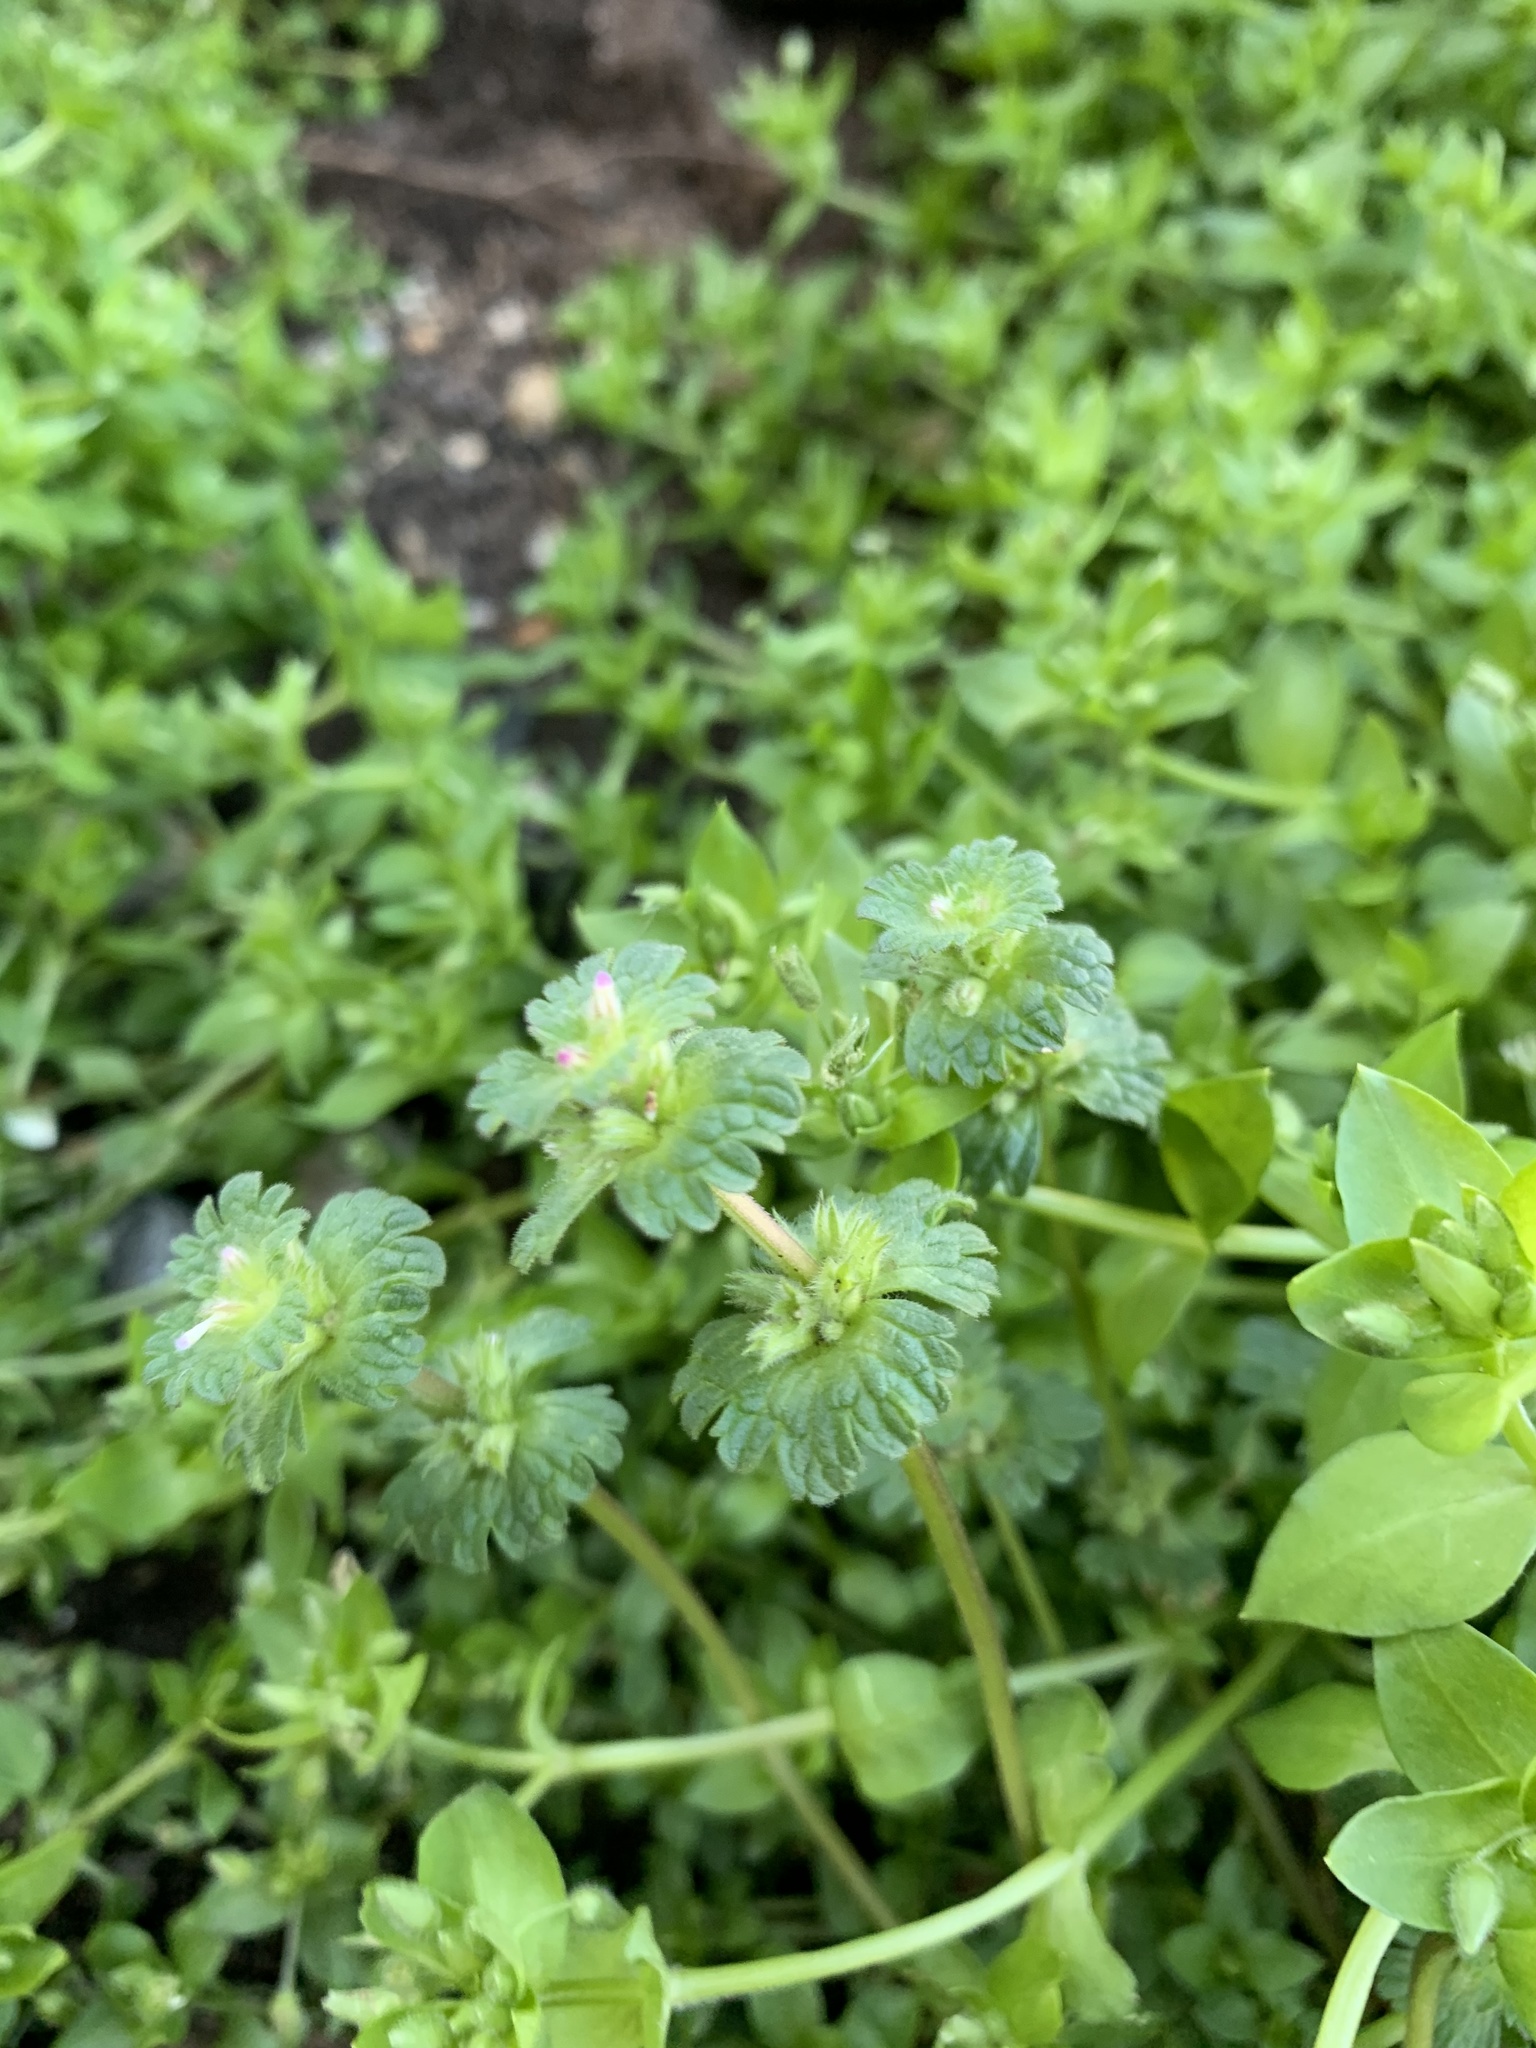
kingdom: Plantae
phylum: Tracheophyta
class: Magnoliopsida
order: Lamiales
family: Lamiaceae
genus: Lamium
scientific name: Lamium amplexicaule
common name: Henbit dead-nettle
